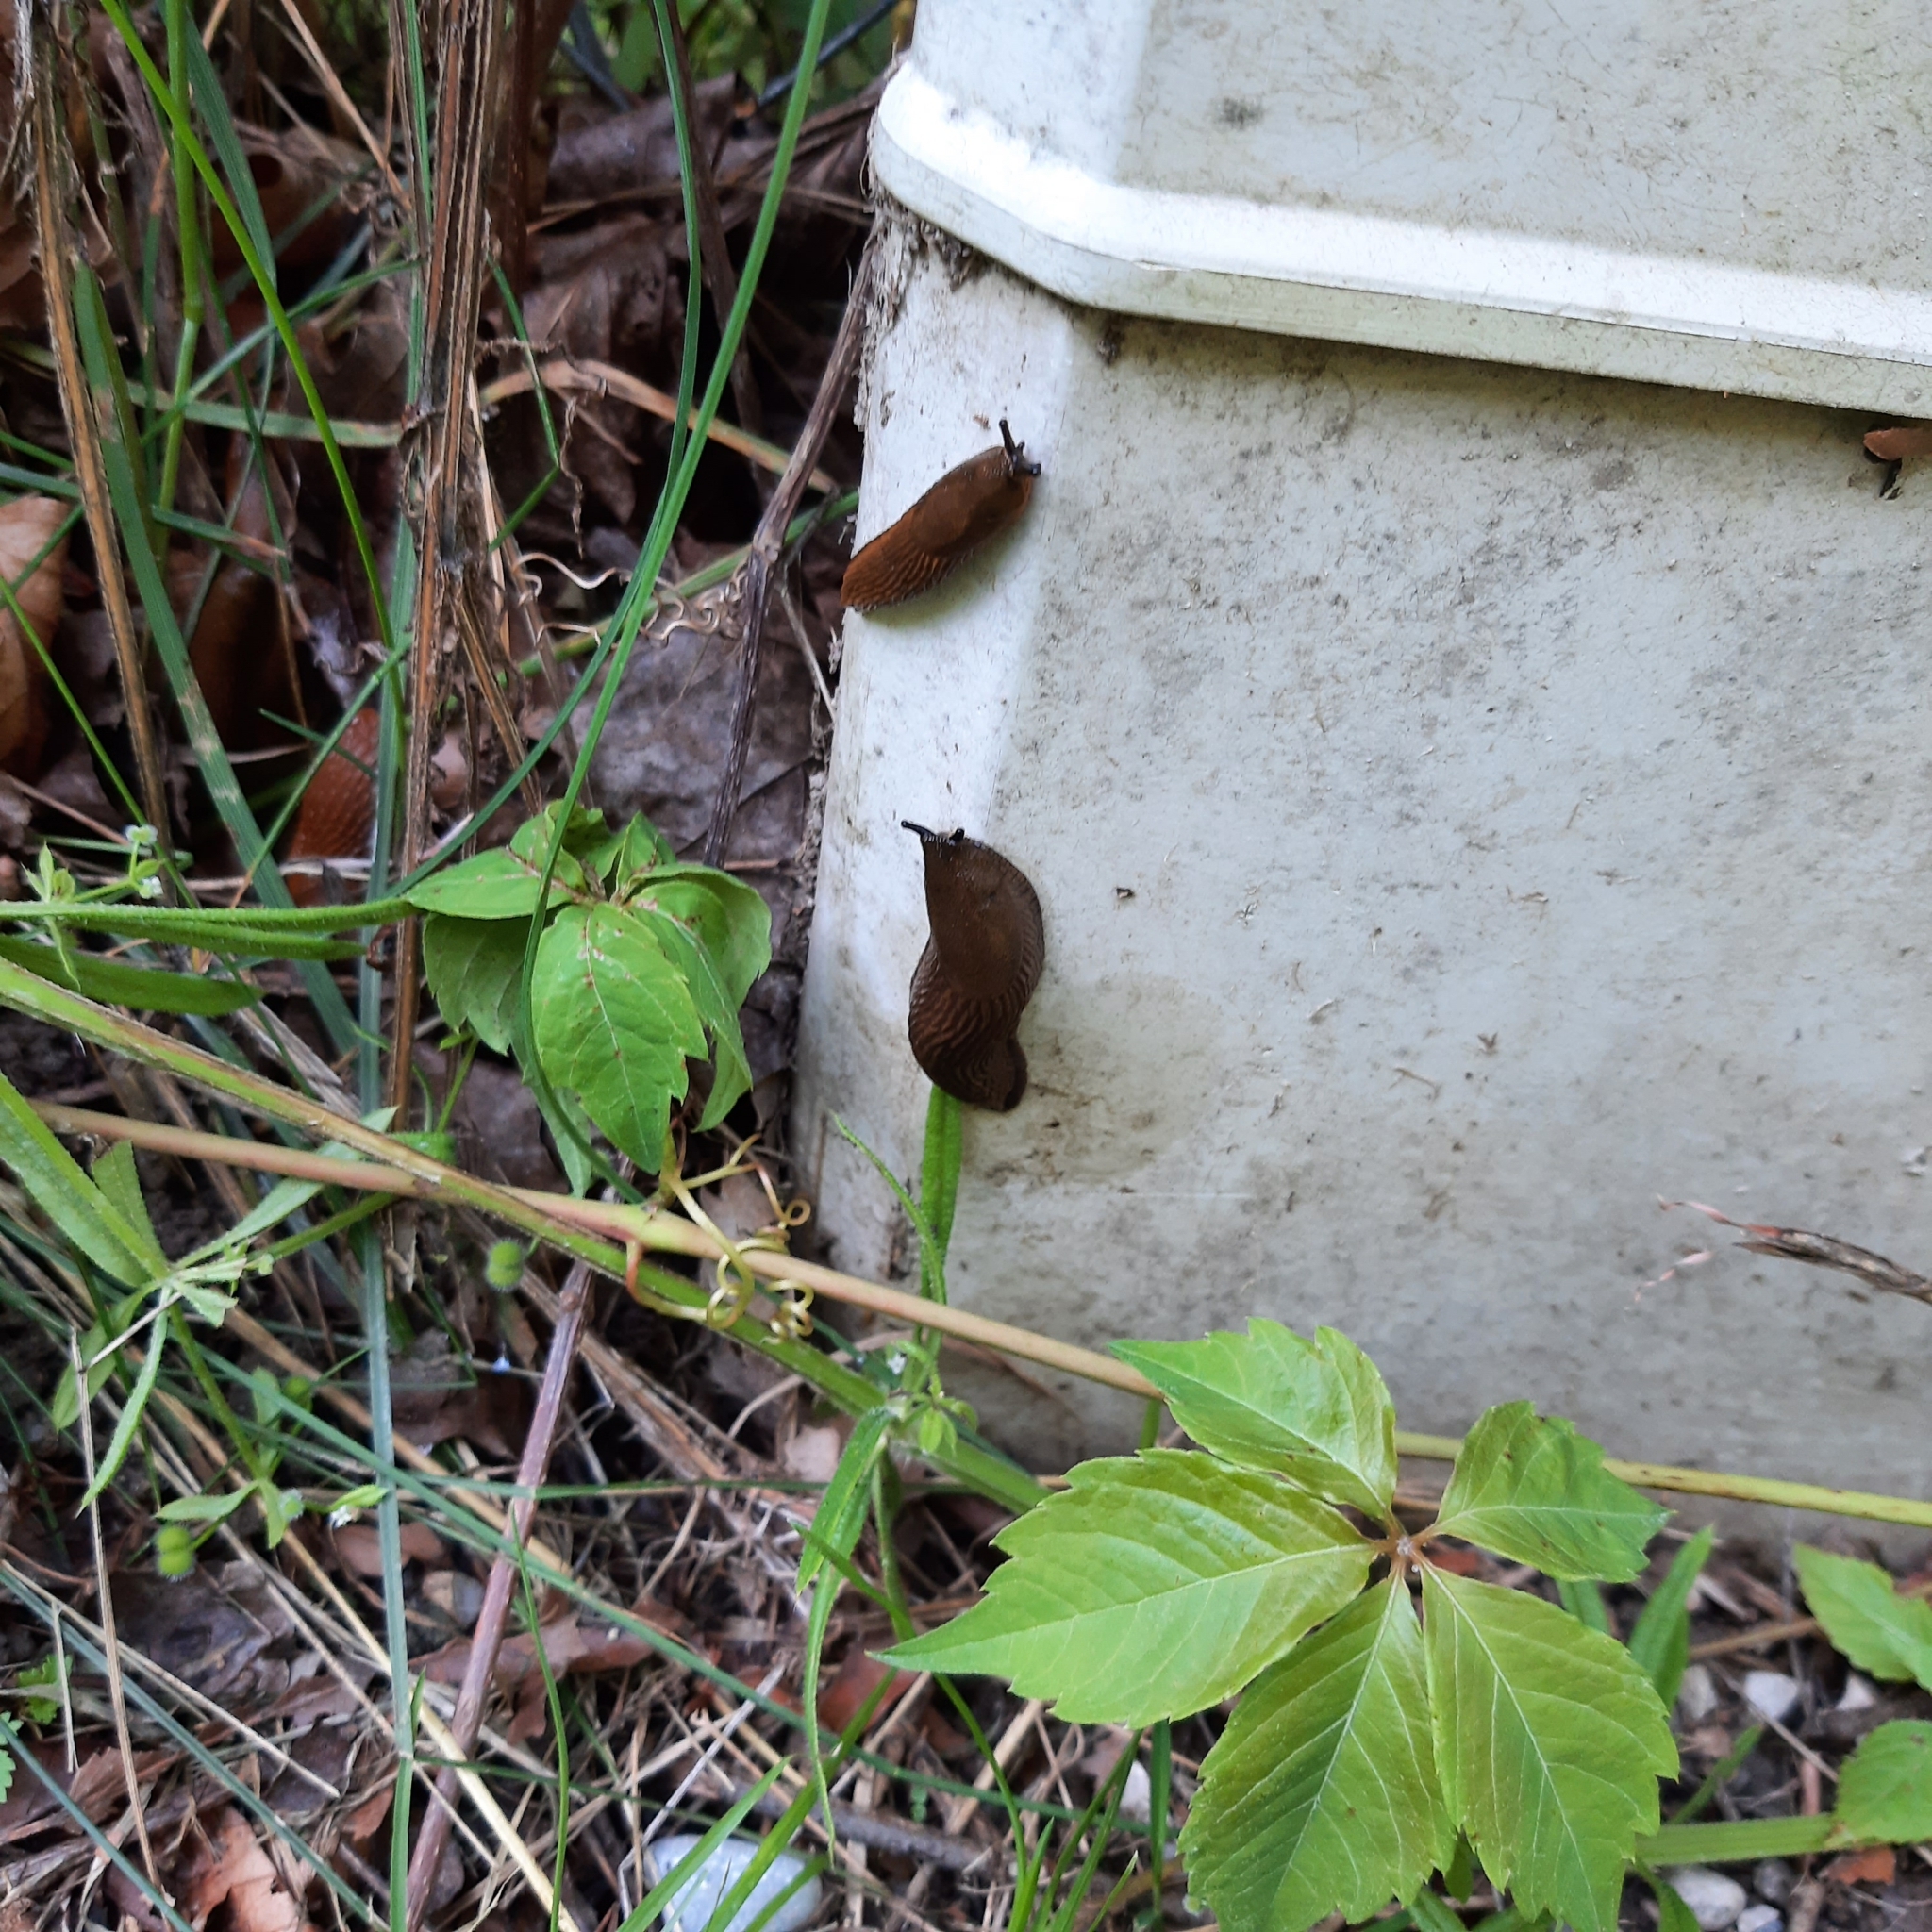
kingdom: Animalia
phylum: Mollusca
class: Gastropoda
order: Stylommatophora
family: Arionidae
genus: Arion
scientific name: Arion
